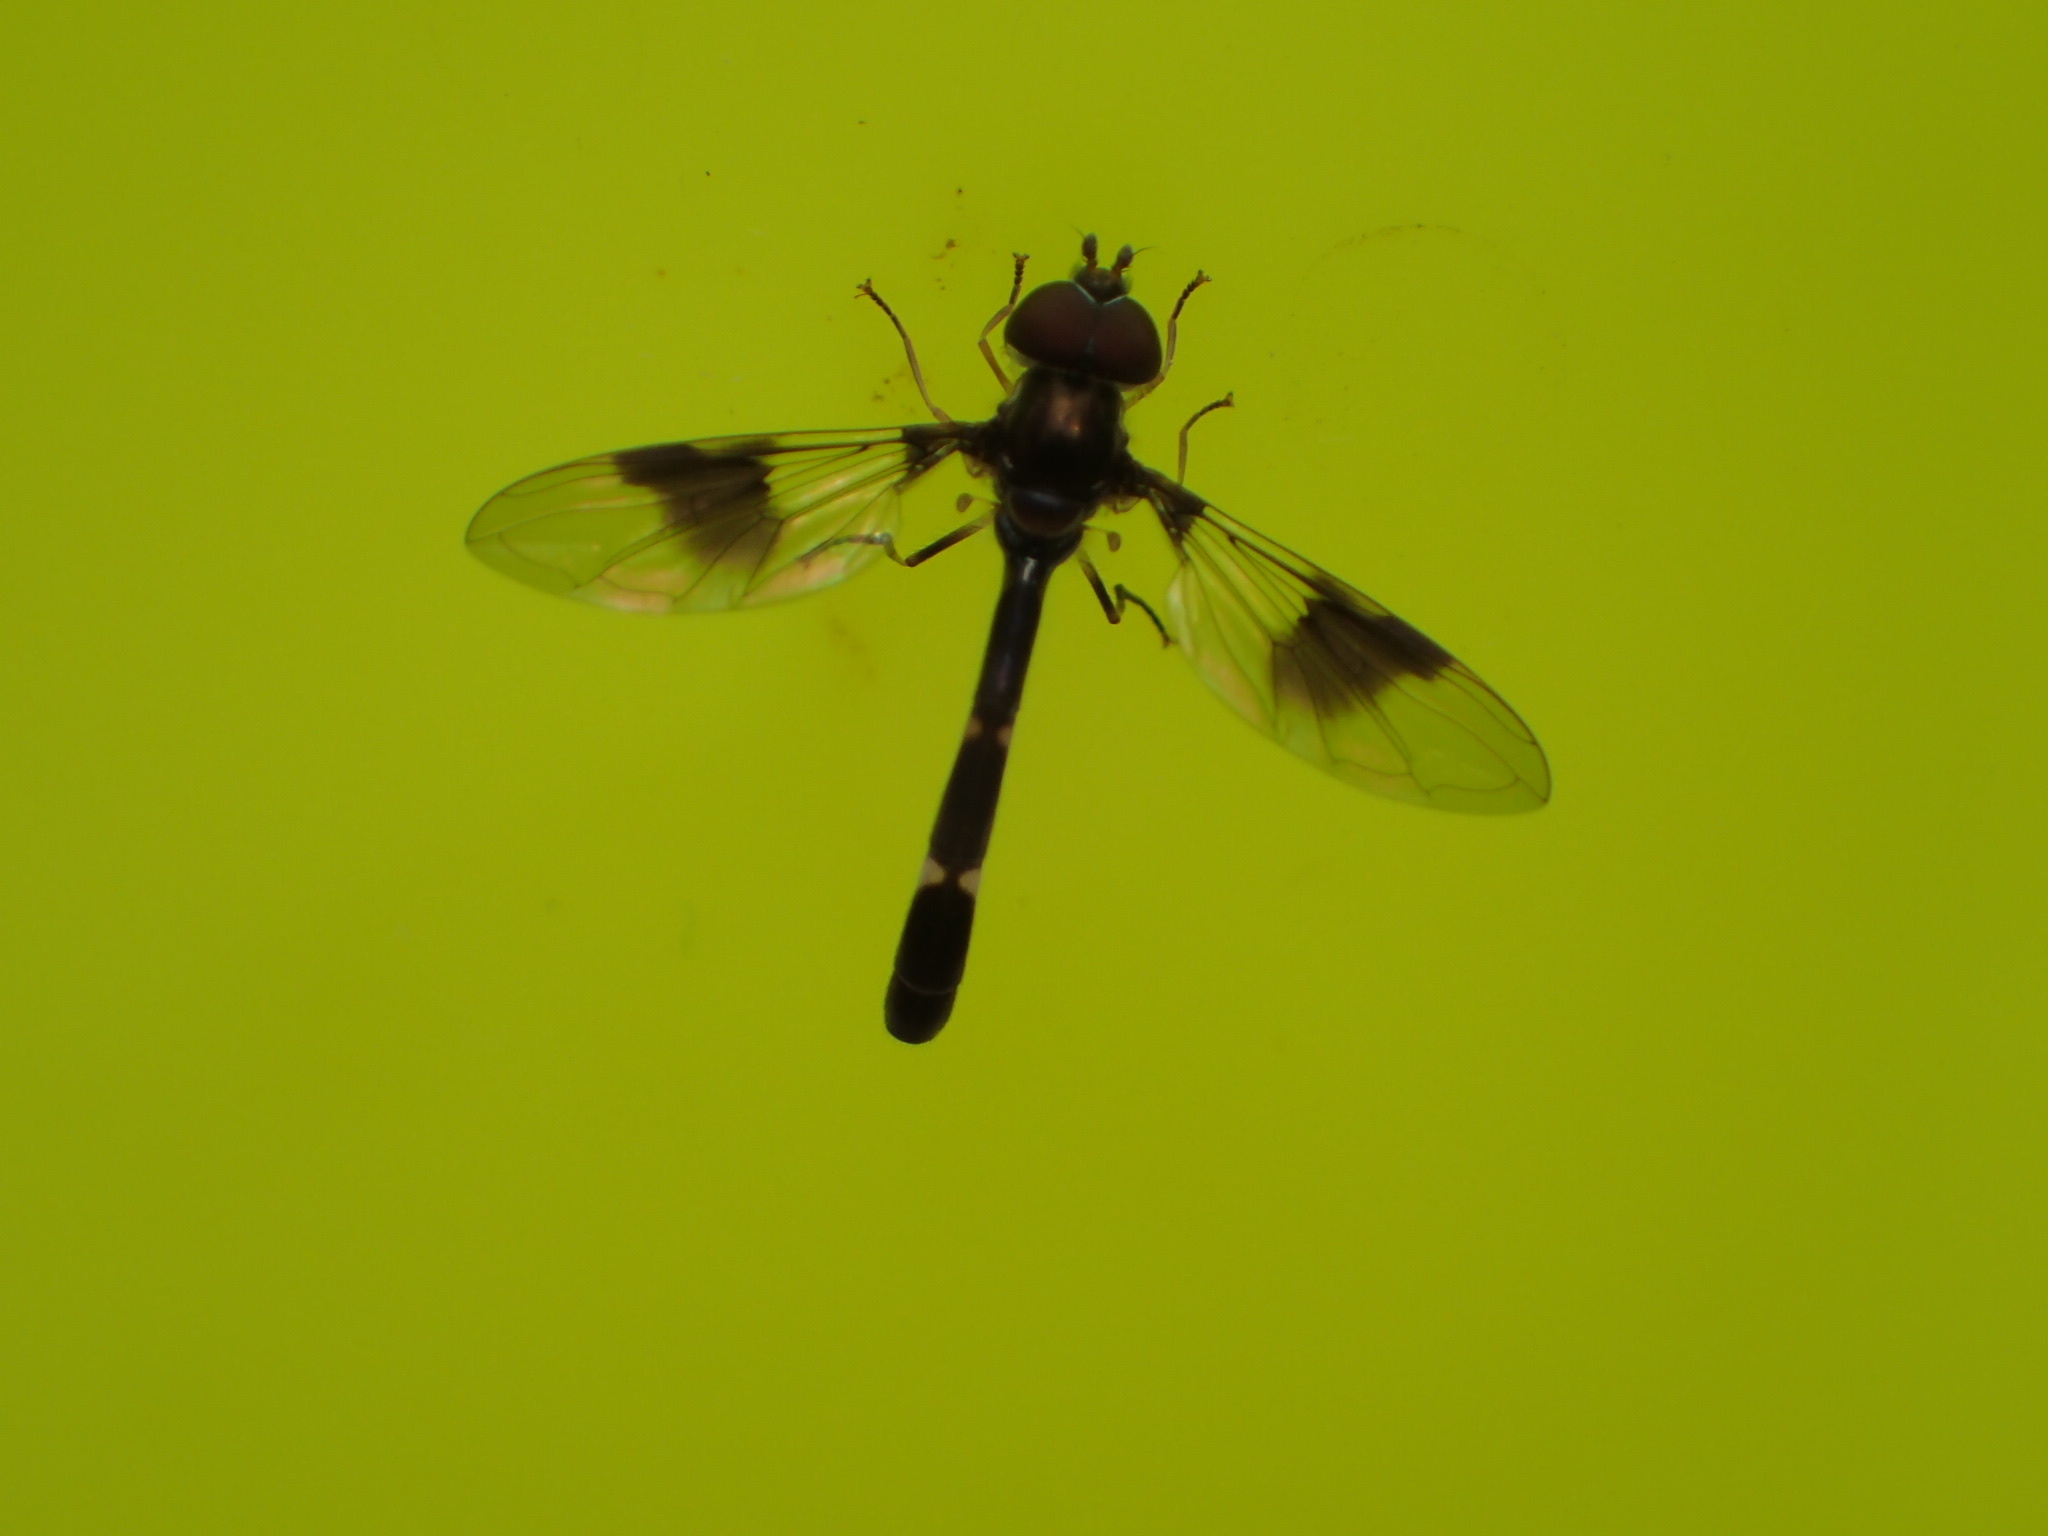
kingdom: Animalia
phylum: Arthropoda
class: Insecta
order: Diptera
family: Syrphidae
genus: Hypocritanus
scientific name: Hypocritanus fascipennis
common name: Eastern band-winged hover fly
